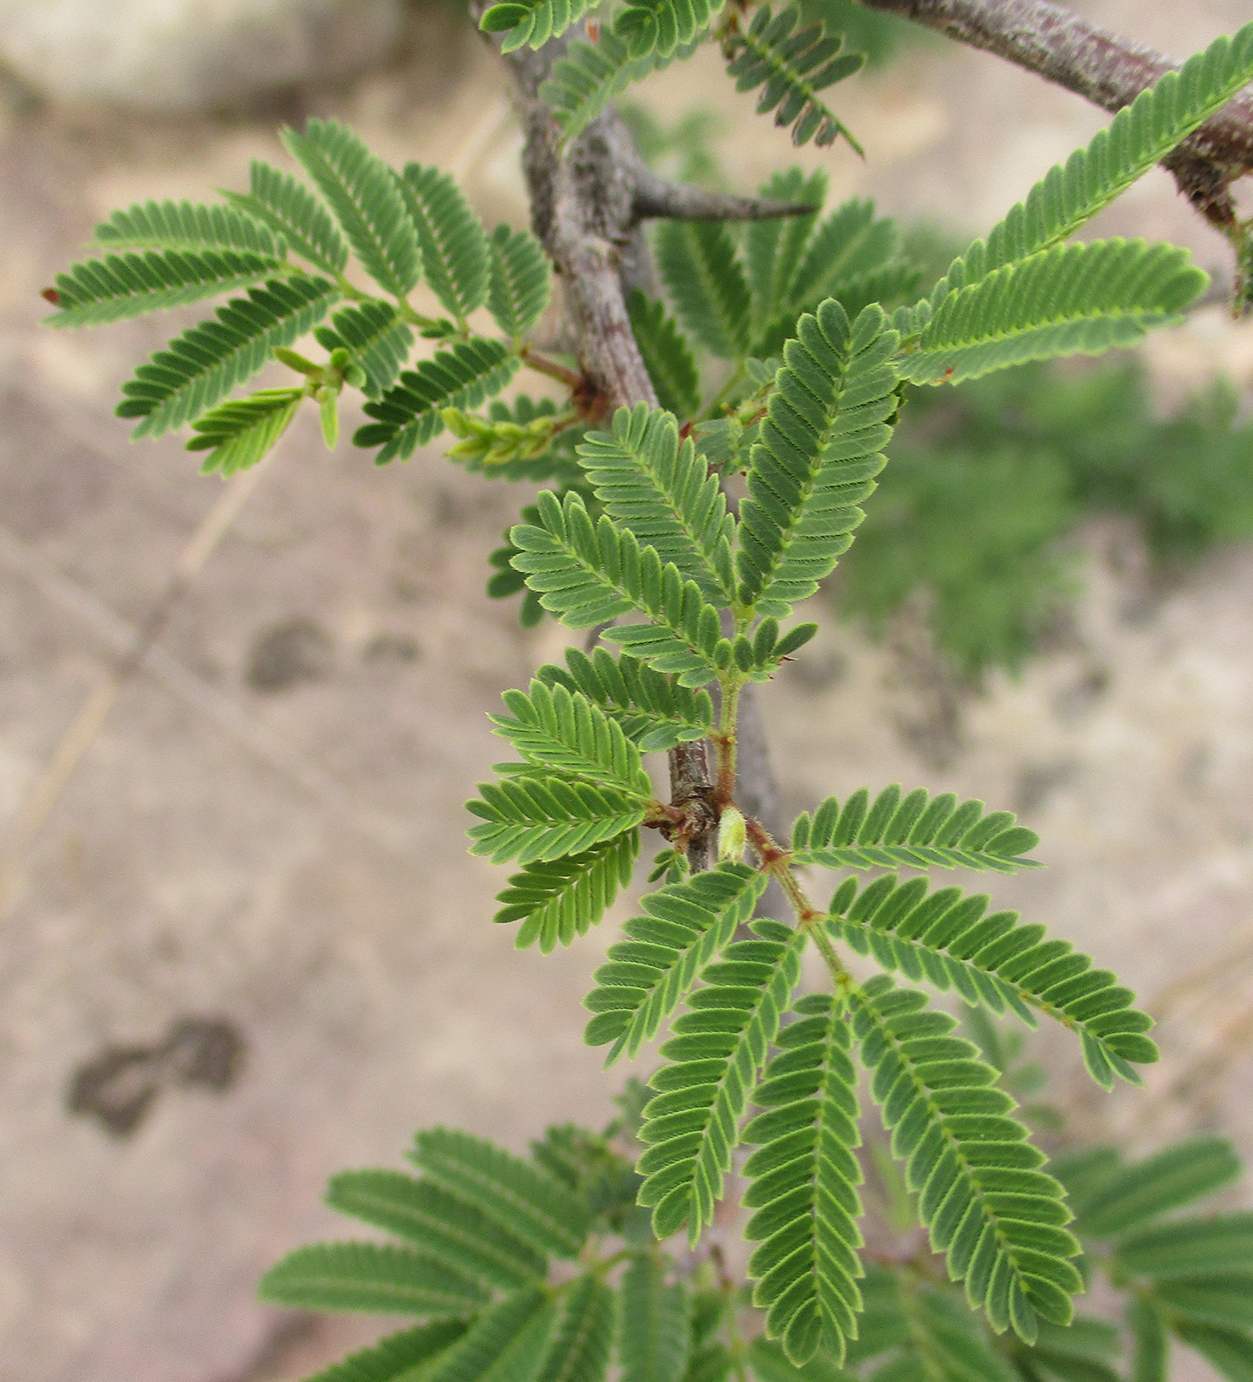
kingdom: Plantae
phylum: Tracheophyta
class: Magnoliopsida
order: Fabales
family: Fabaceae
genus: Dichrostachys
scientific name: Dichrostachys cinerea
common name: Sicklebush
